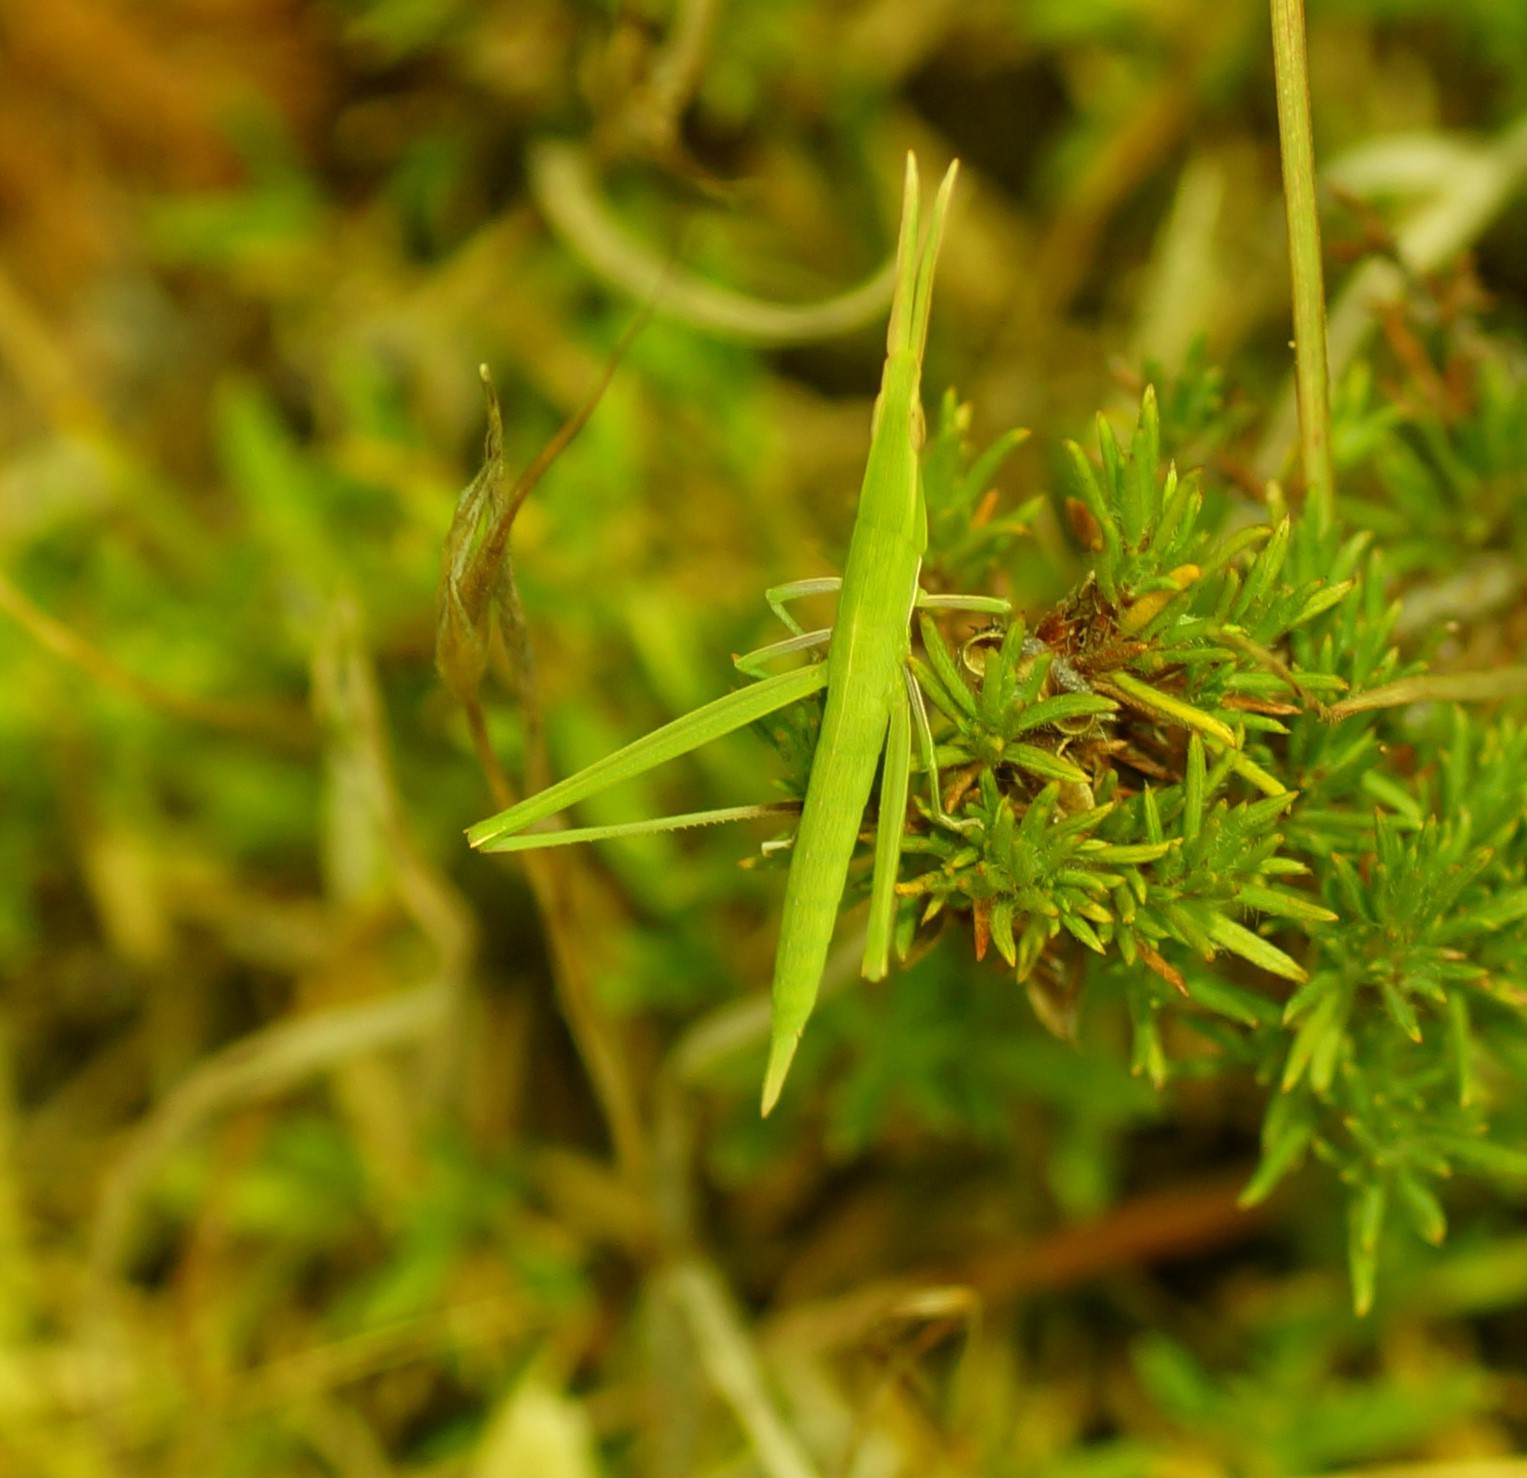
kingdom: Animalia
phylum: Arthropoda
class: Insecta
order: Orthoptera
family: Acrididae
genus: Acrida
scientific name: Acrida conica
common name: Giant green slantface
